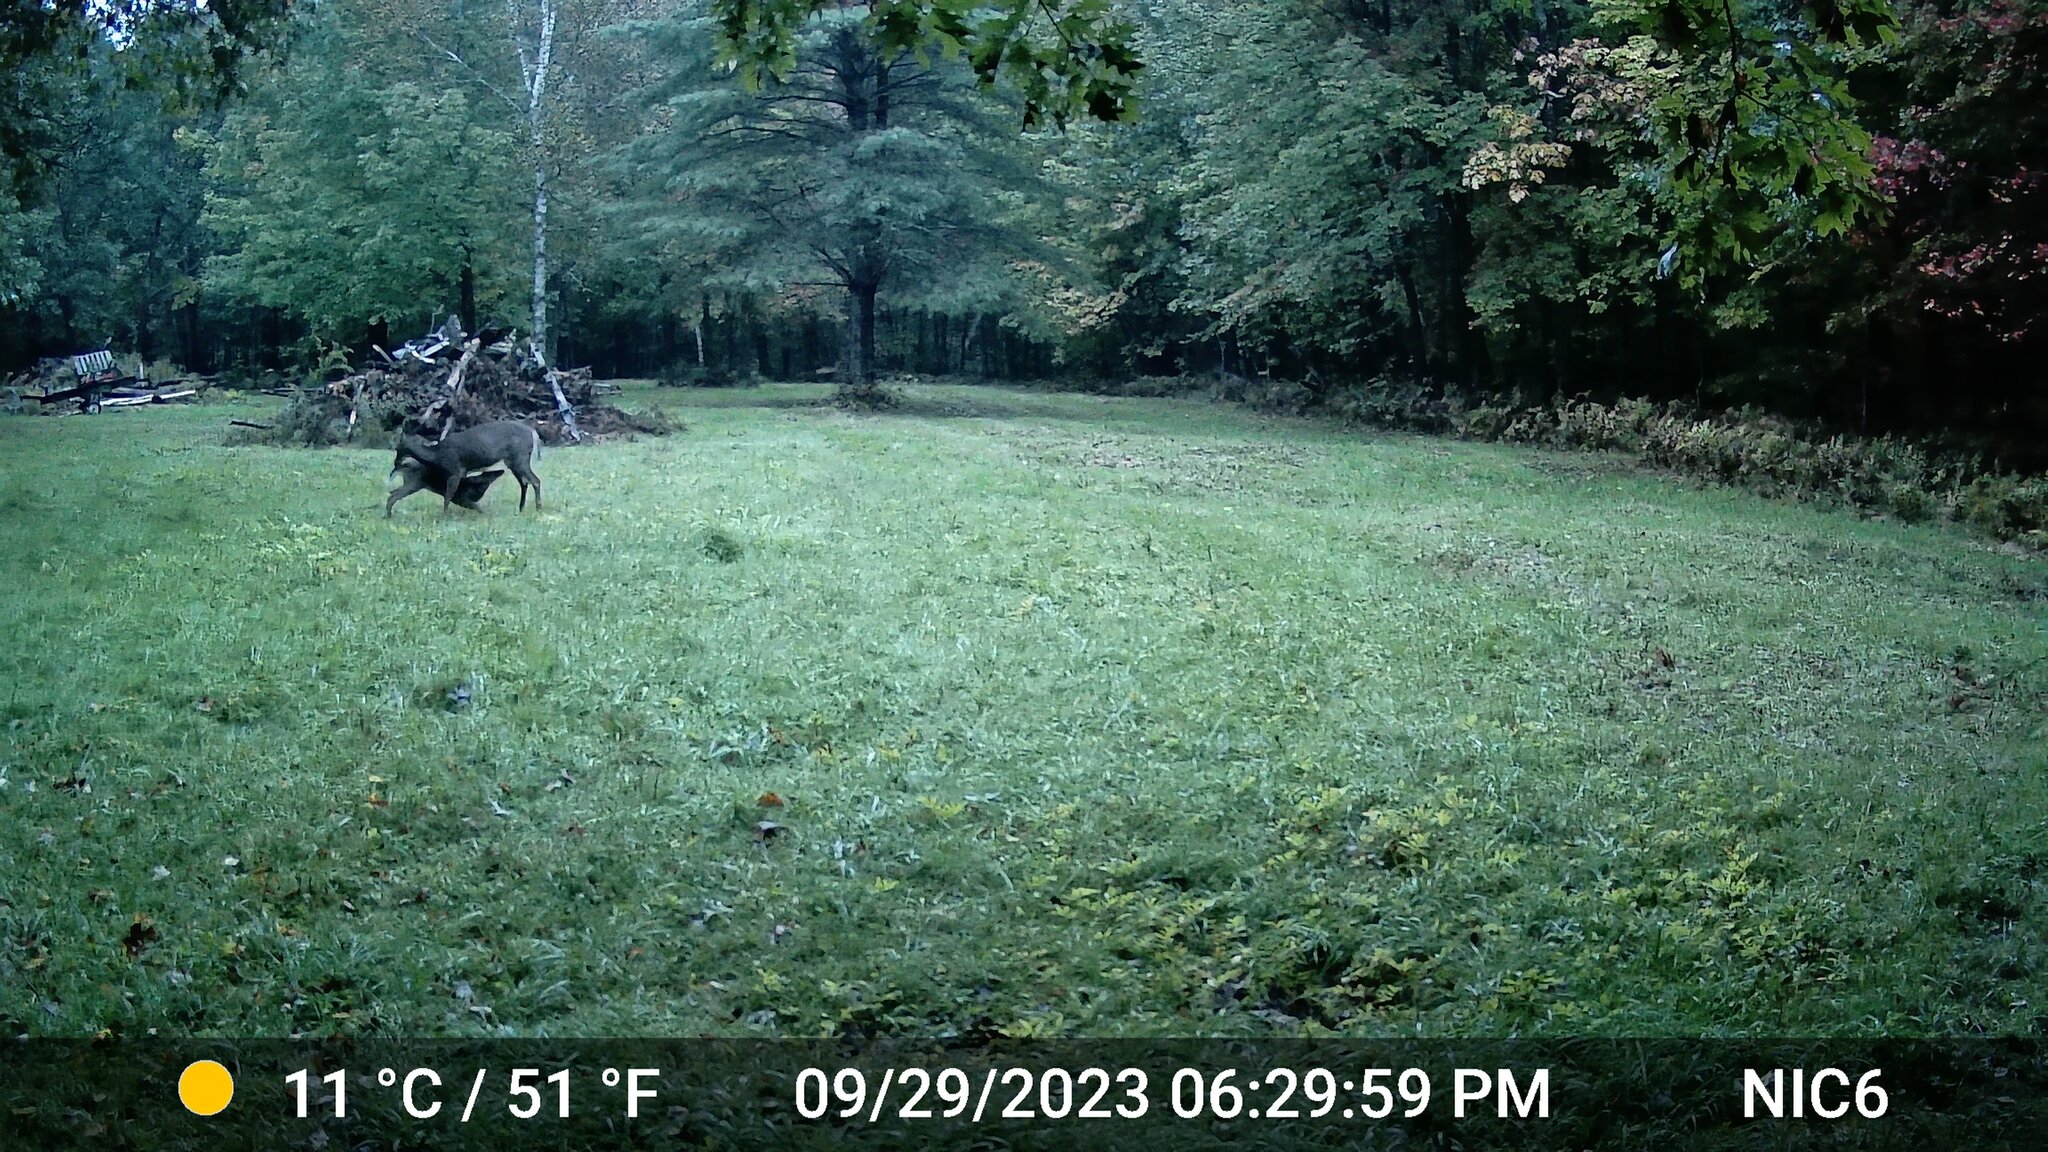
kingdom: Animalia
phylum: Chordata
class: Mammalia
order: Artiodactyla
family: Cervidae
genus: Odocoileus
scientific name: Odocoileus virginianus
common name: White-tailed deer
